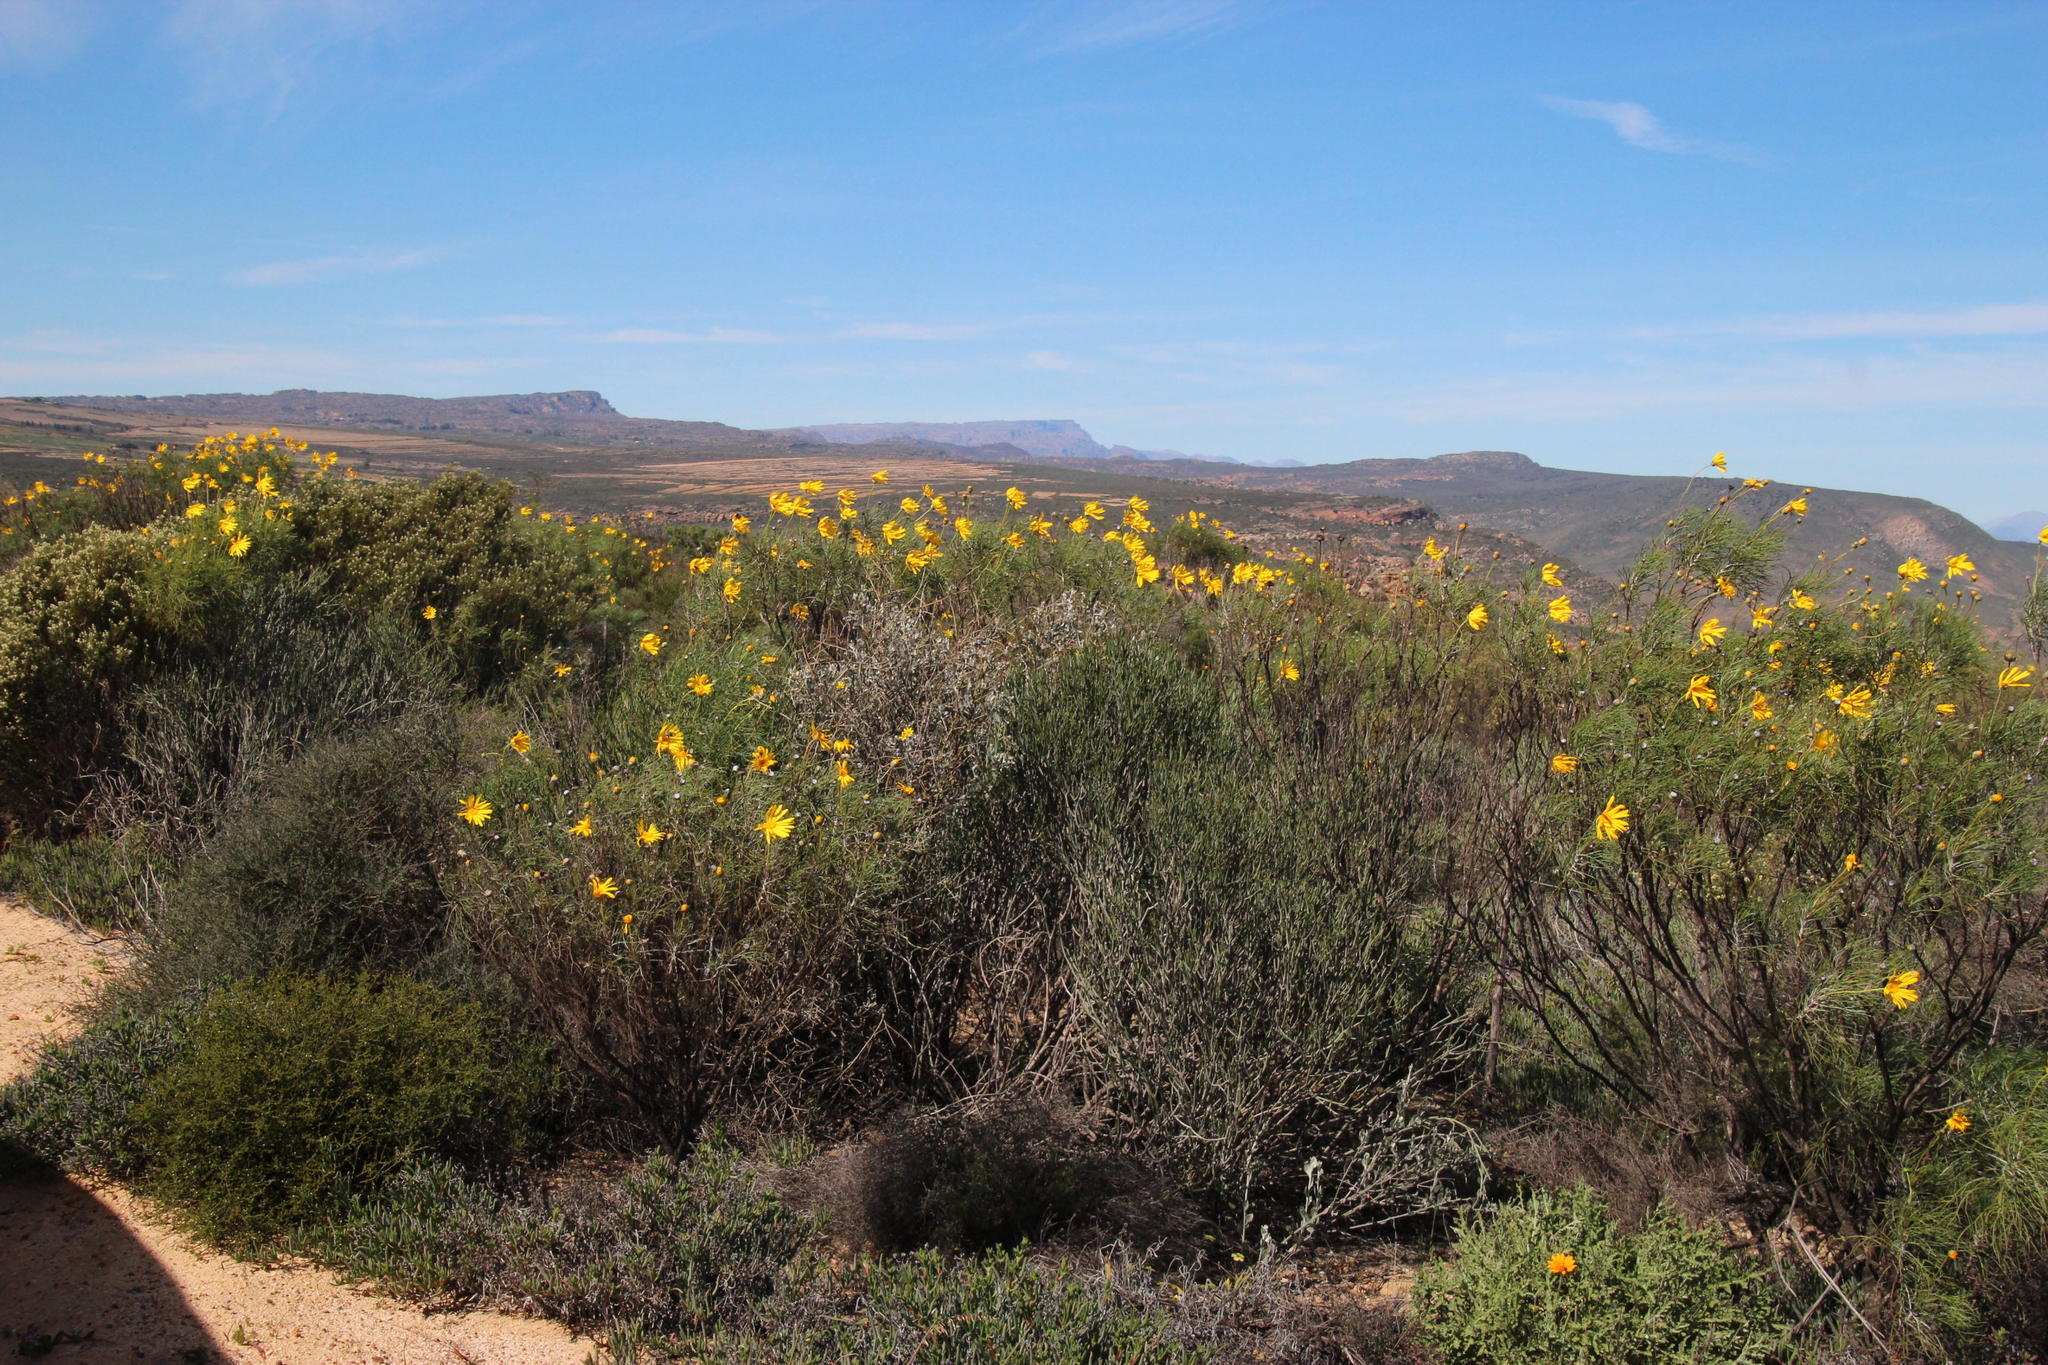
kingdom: Plantae
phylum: Tracheophyta
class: Magnoliopsida
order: Asterales
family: Asteraceae
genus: Euryops
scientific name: Euryops speciosissimus
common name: Clanwilliam daisy
